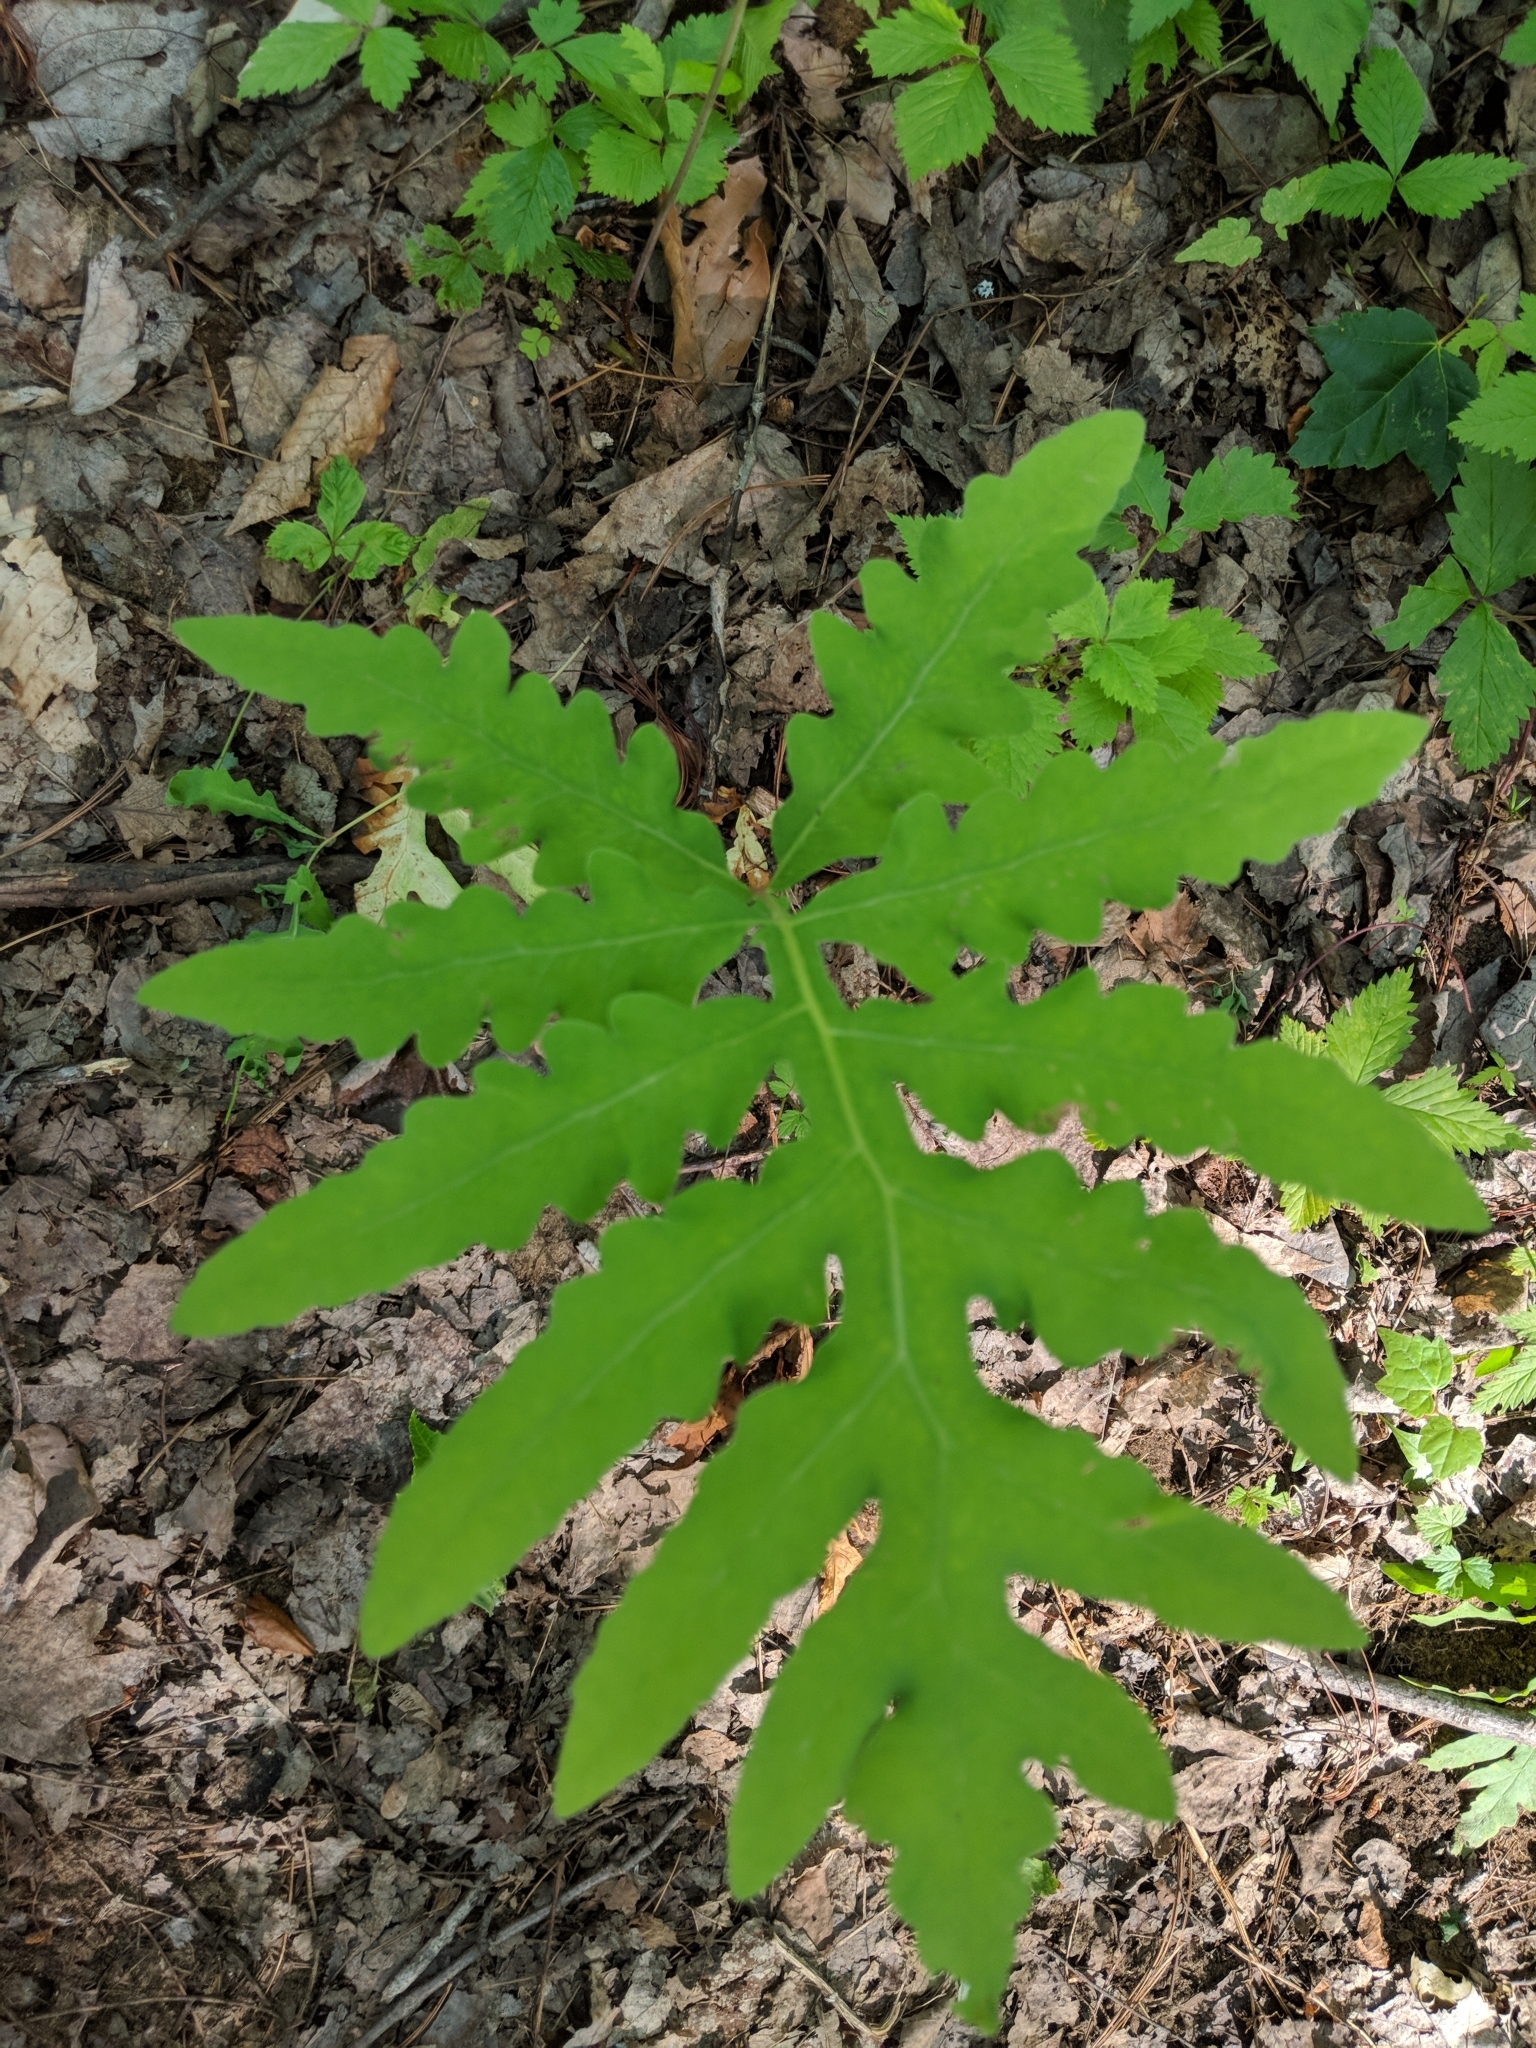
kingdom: Plantae
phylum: Tracheophyta
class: Polypodiopsida
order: Polypodiales
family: Onocleaceae
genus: Onoclea
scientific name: Onoclea sensibilis
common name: Sensitive fern
